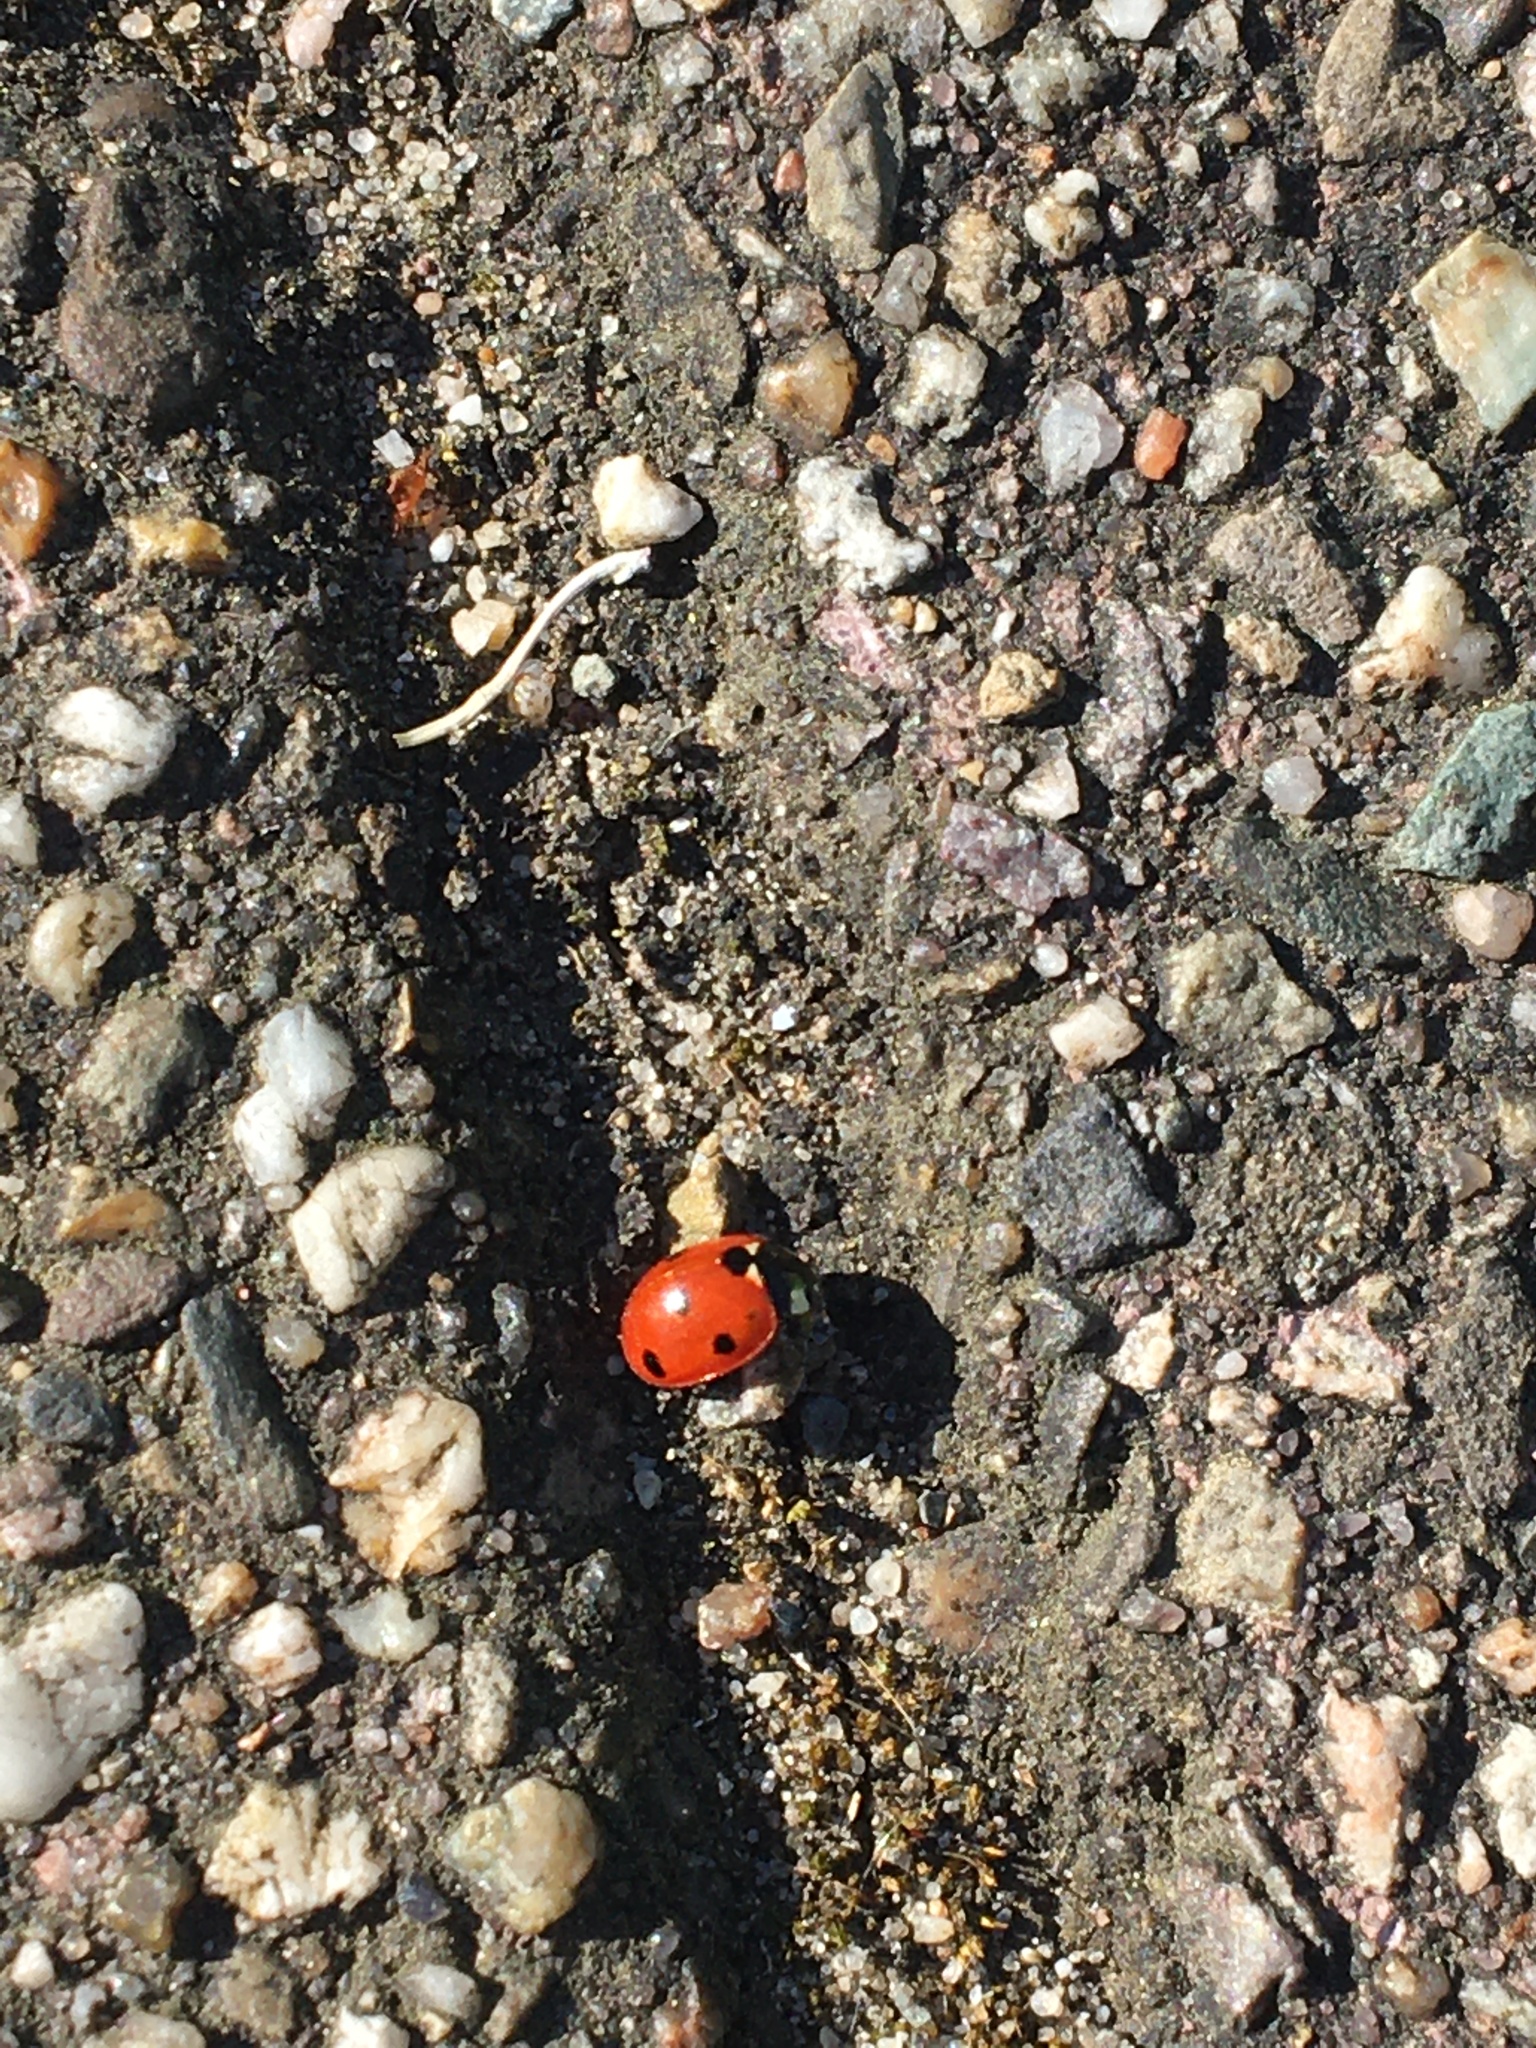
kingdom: Animalia
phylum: Arthropoda
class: Insecta
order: Coleoptera
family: Coccinellidae
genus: Coccinella
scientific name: Coccinella septempunctata
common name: Sevenspotted lady beetle
